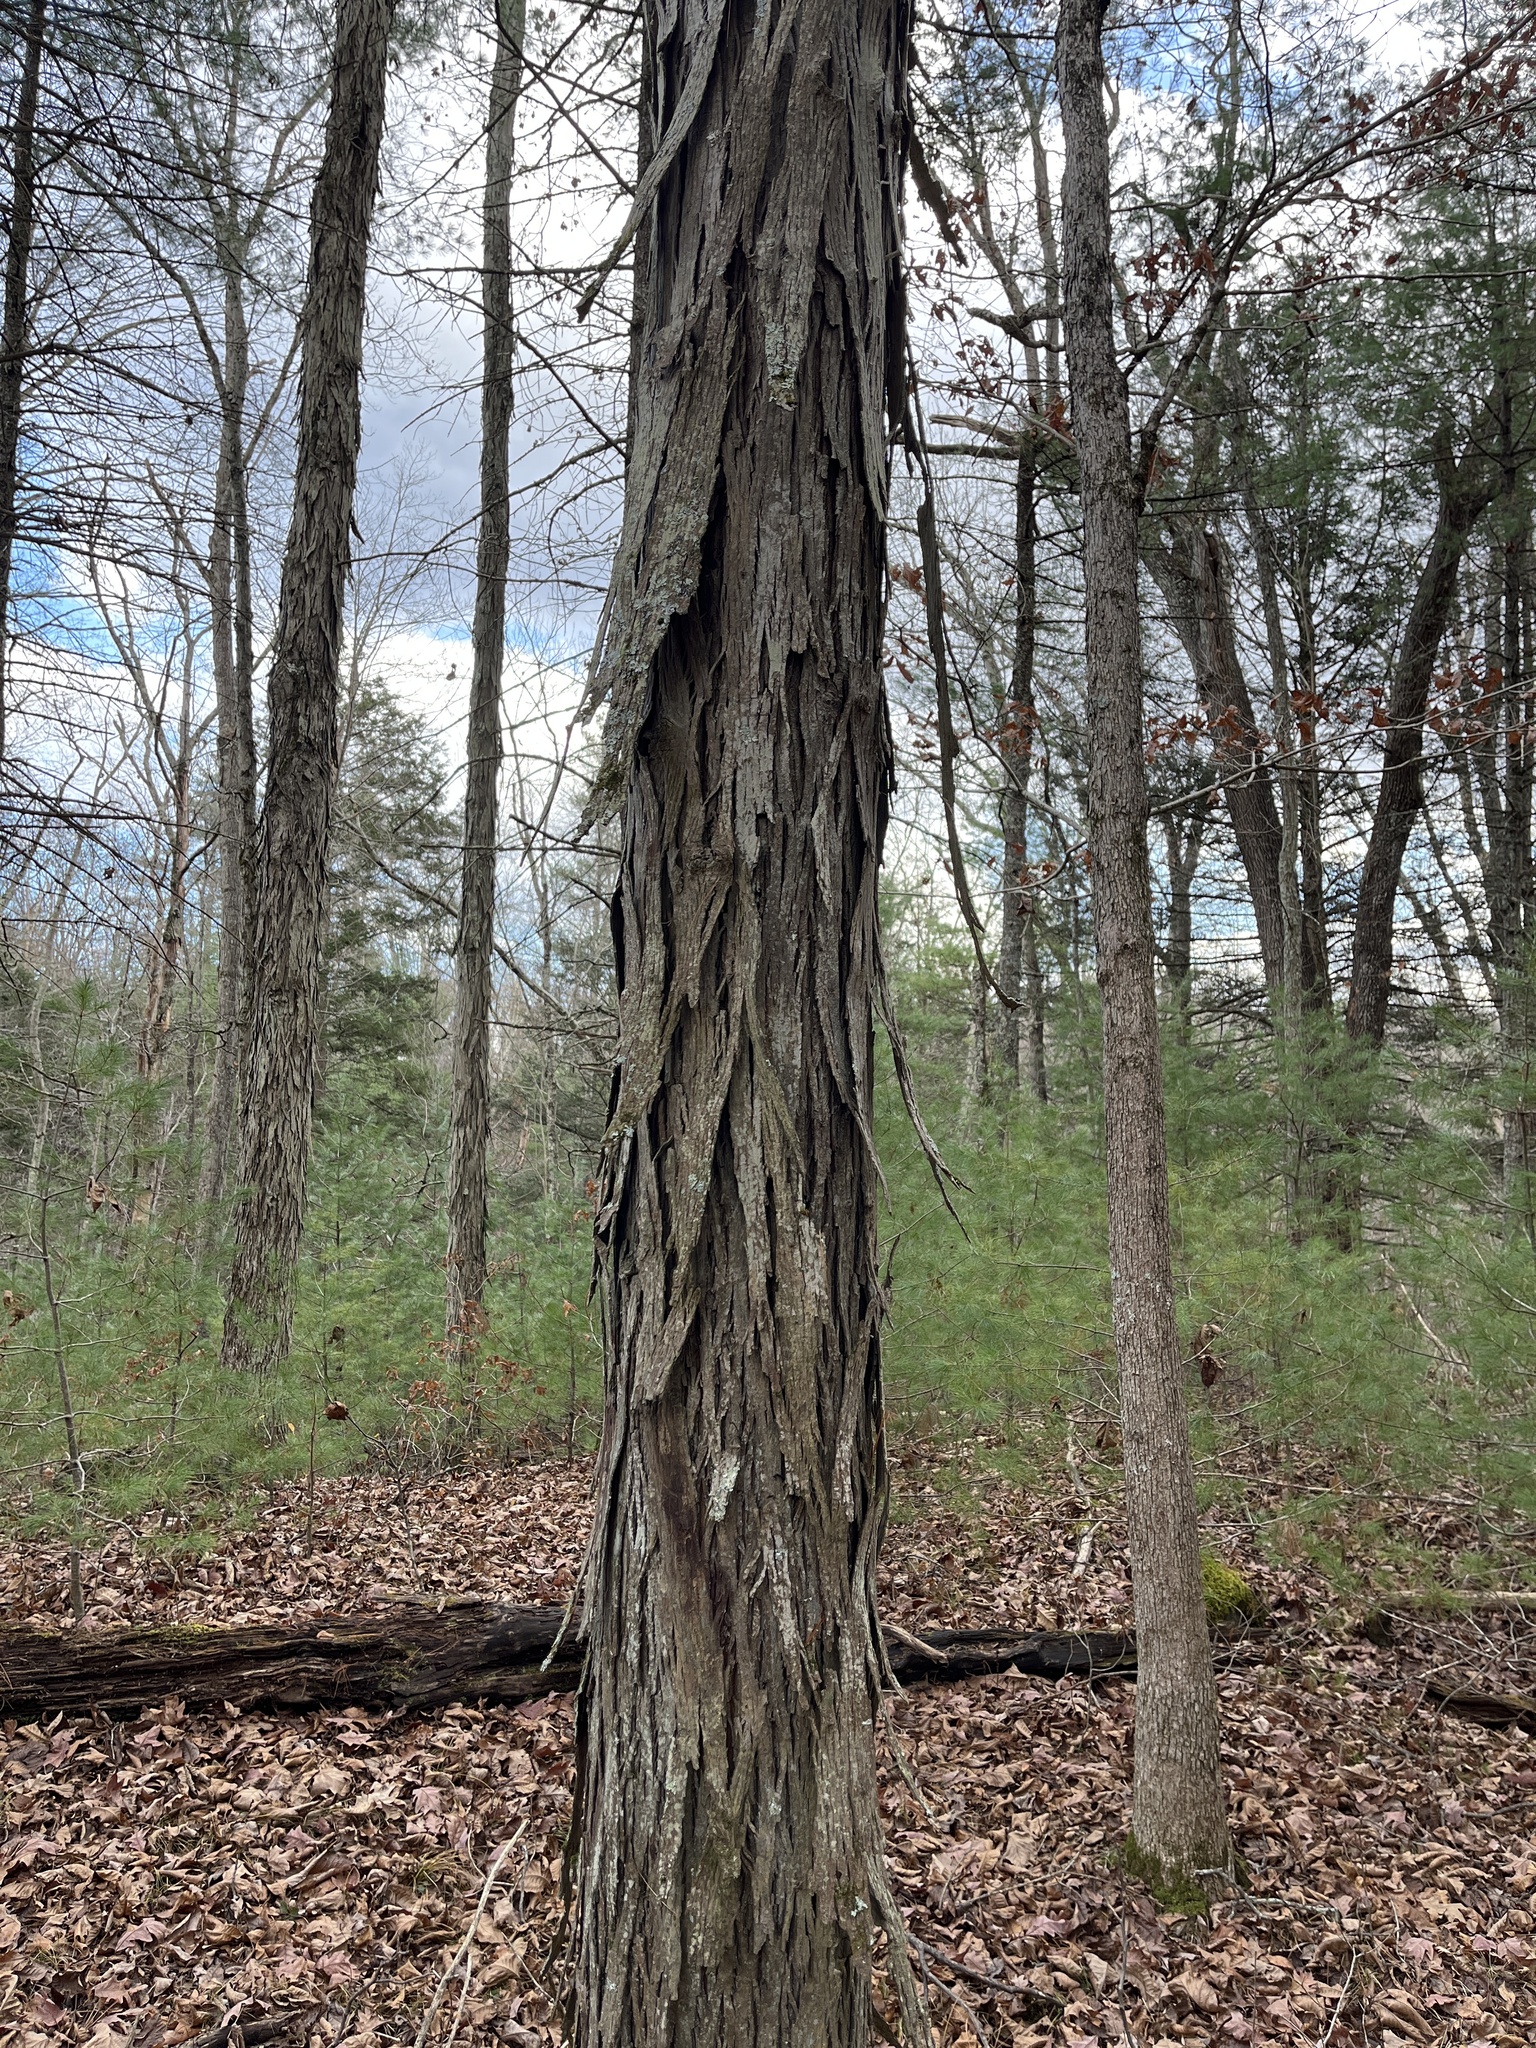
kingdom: Plantae
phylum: Tracheophyta
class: Magnoliopsida
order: Fagales
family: Juglandaceae
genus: Carya
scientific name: Carya ovata
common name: Shagbark hickory
